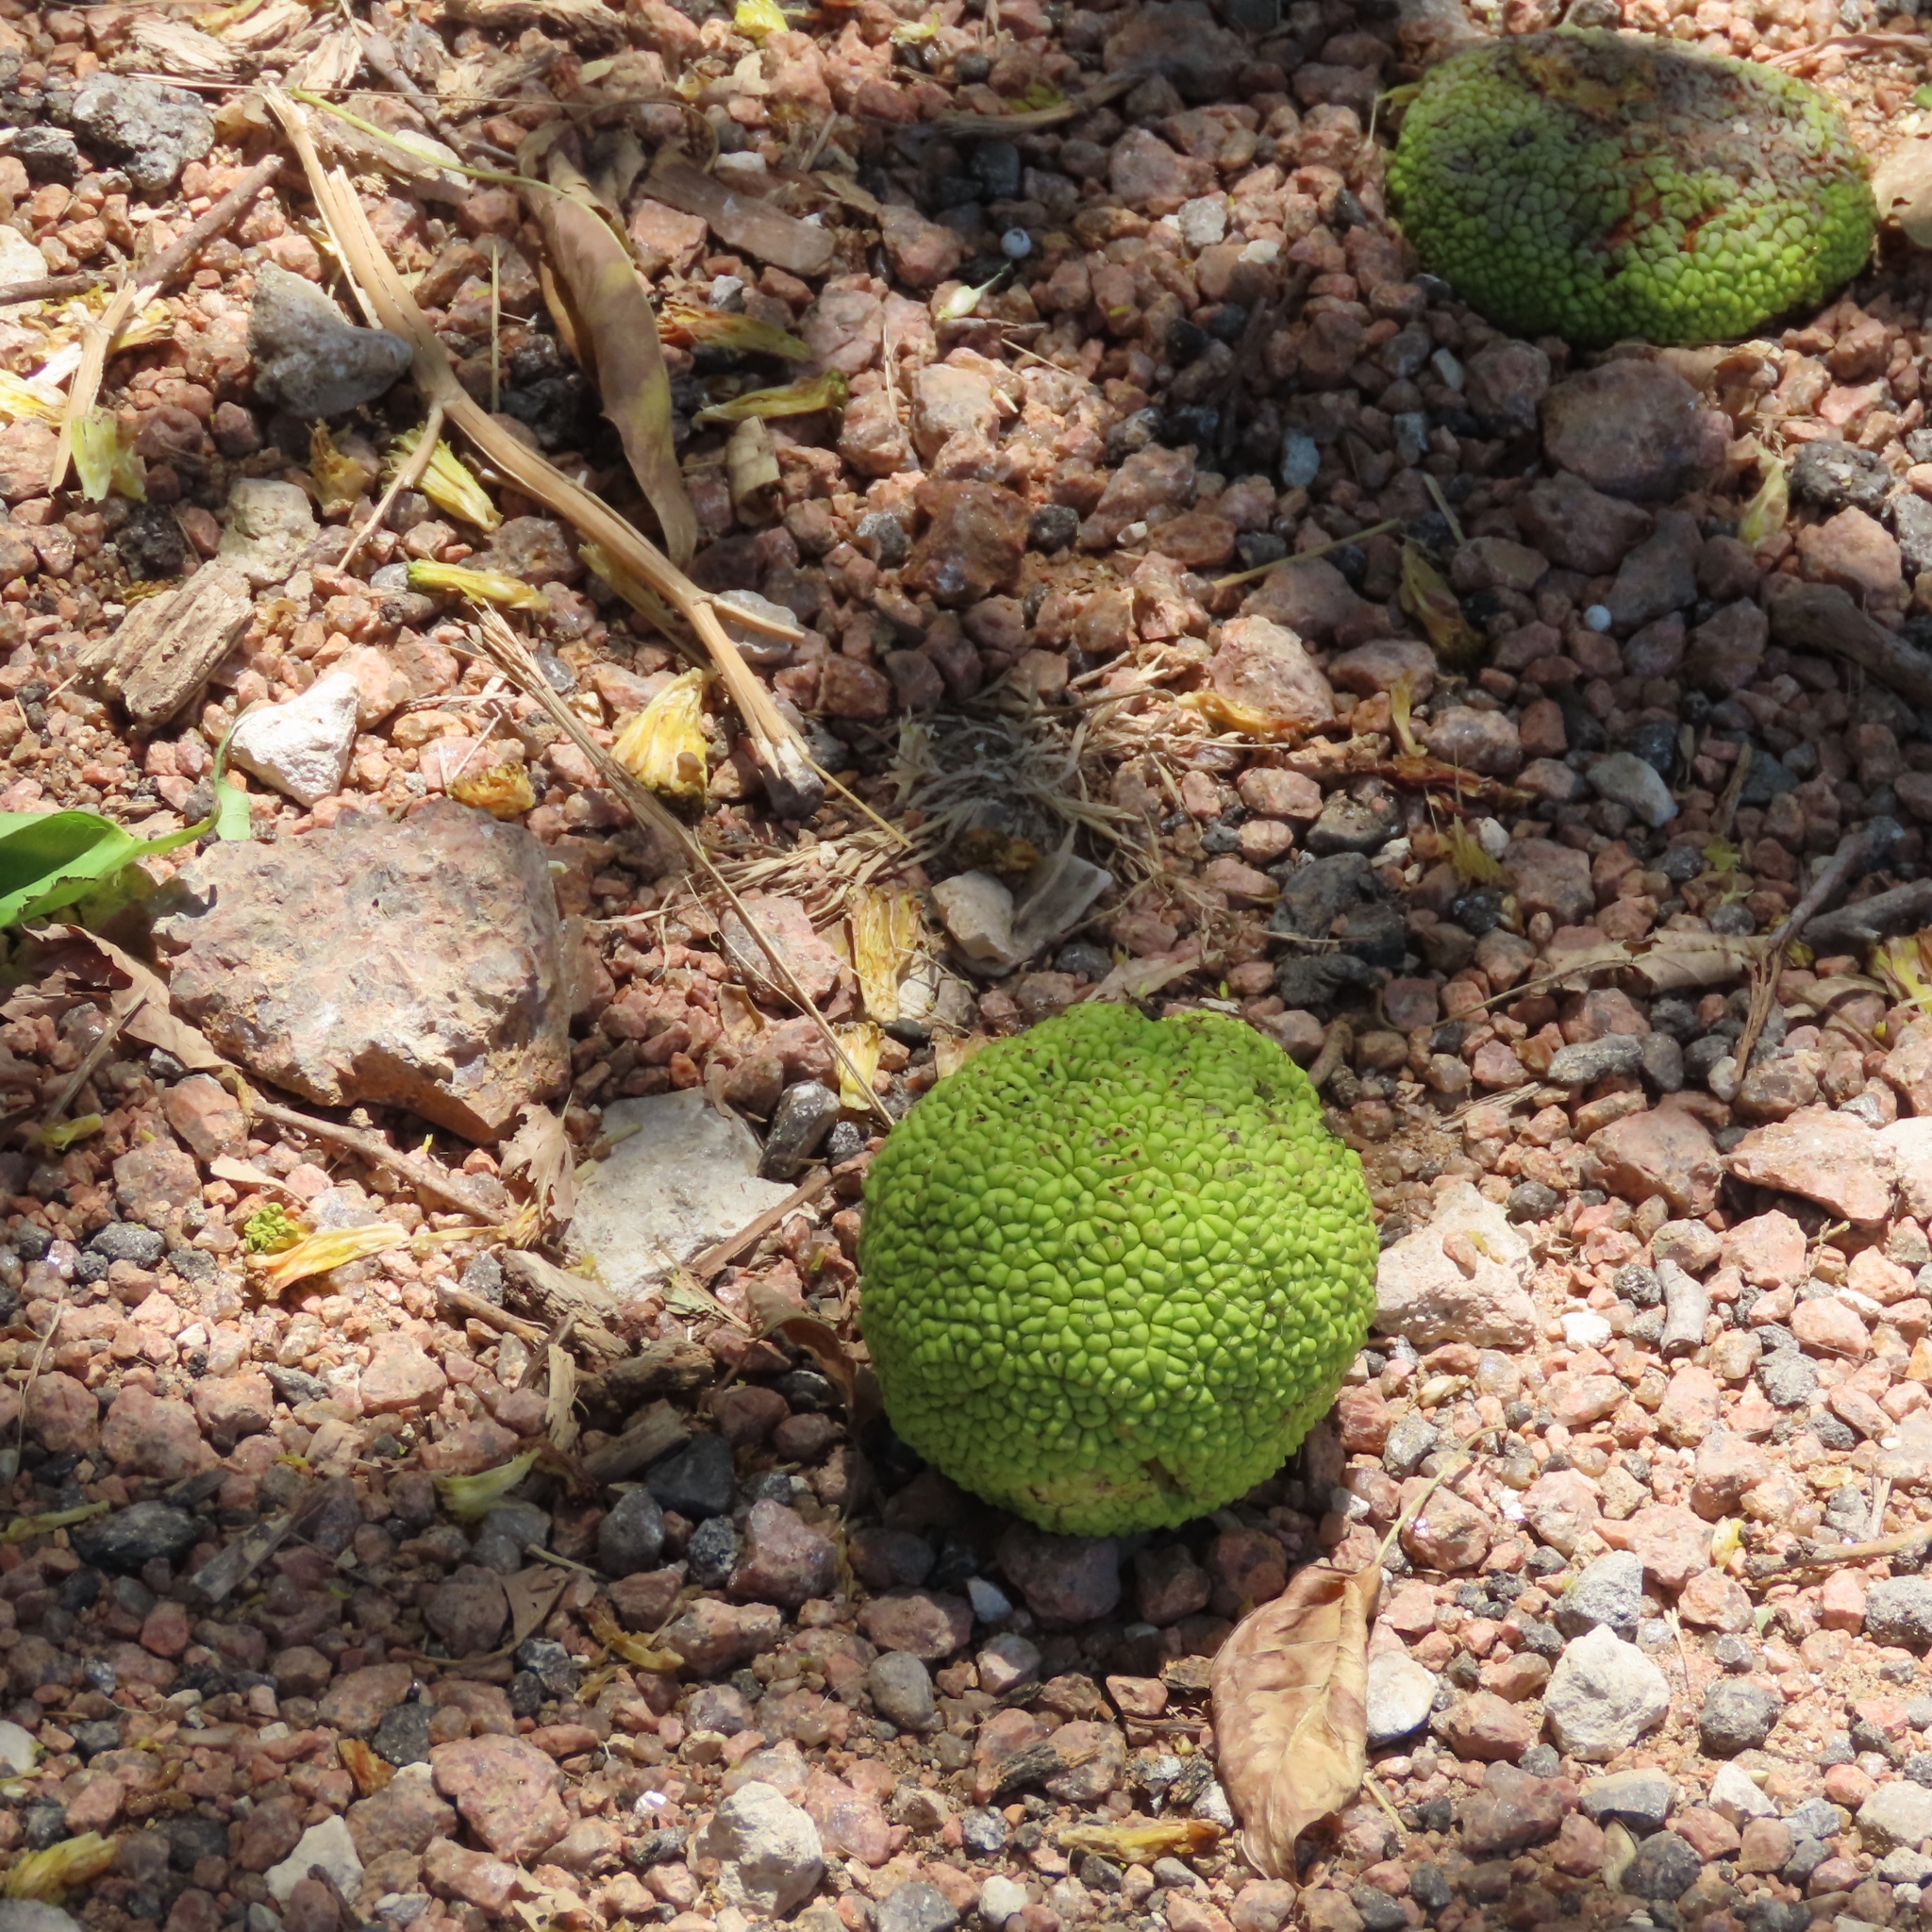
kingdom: Plantae
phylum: Tracheophyta
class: Magnoliopsida
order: Rosales
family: Moraceae
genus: Maclura
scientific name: Maclura pomifera
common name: Osage-orange
